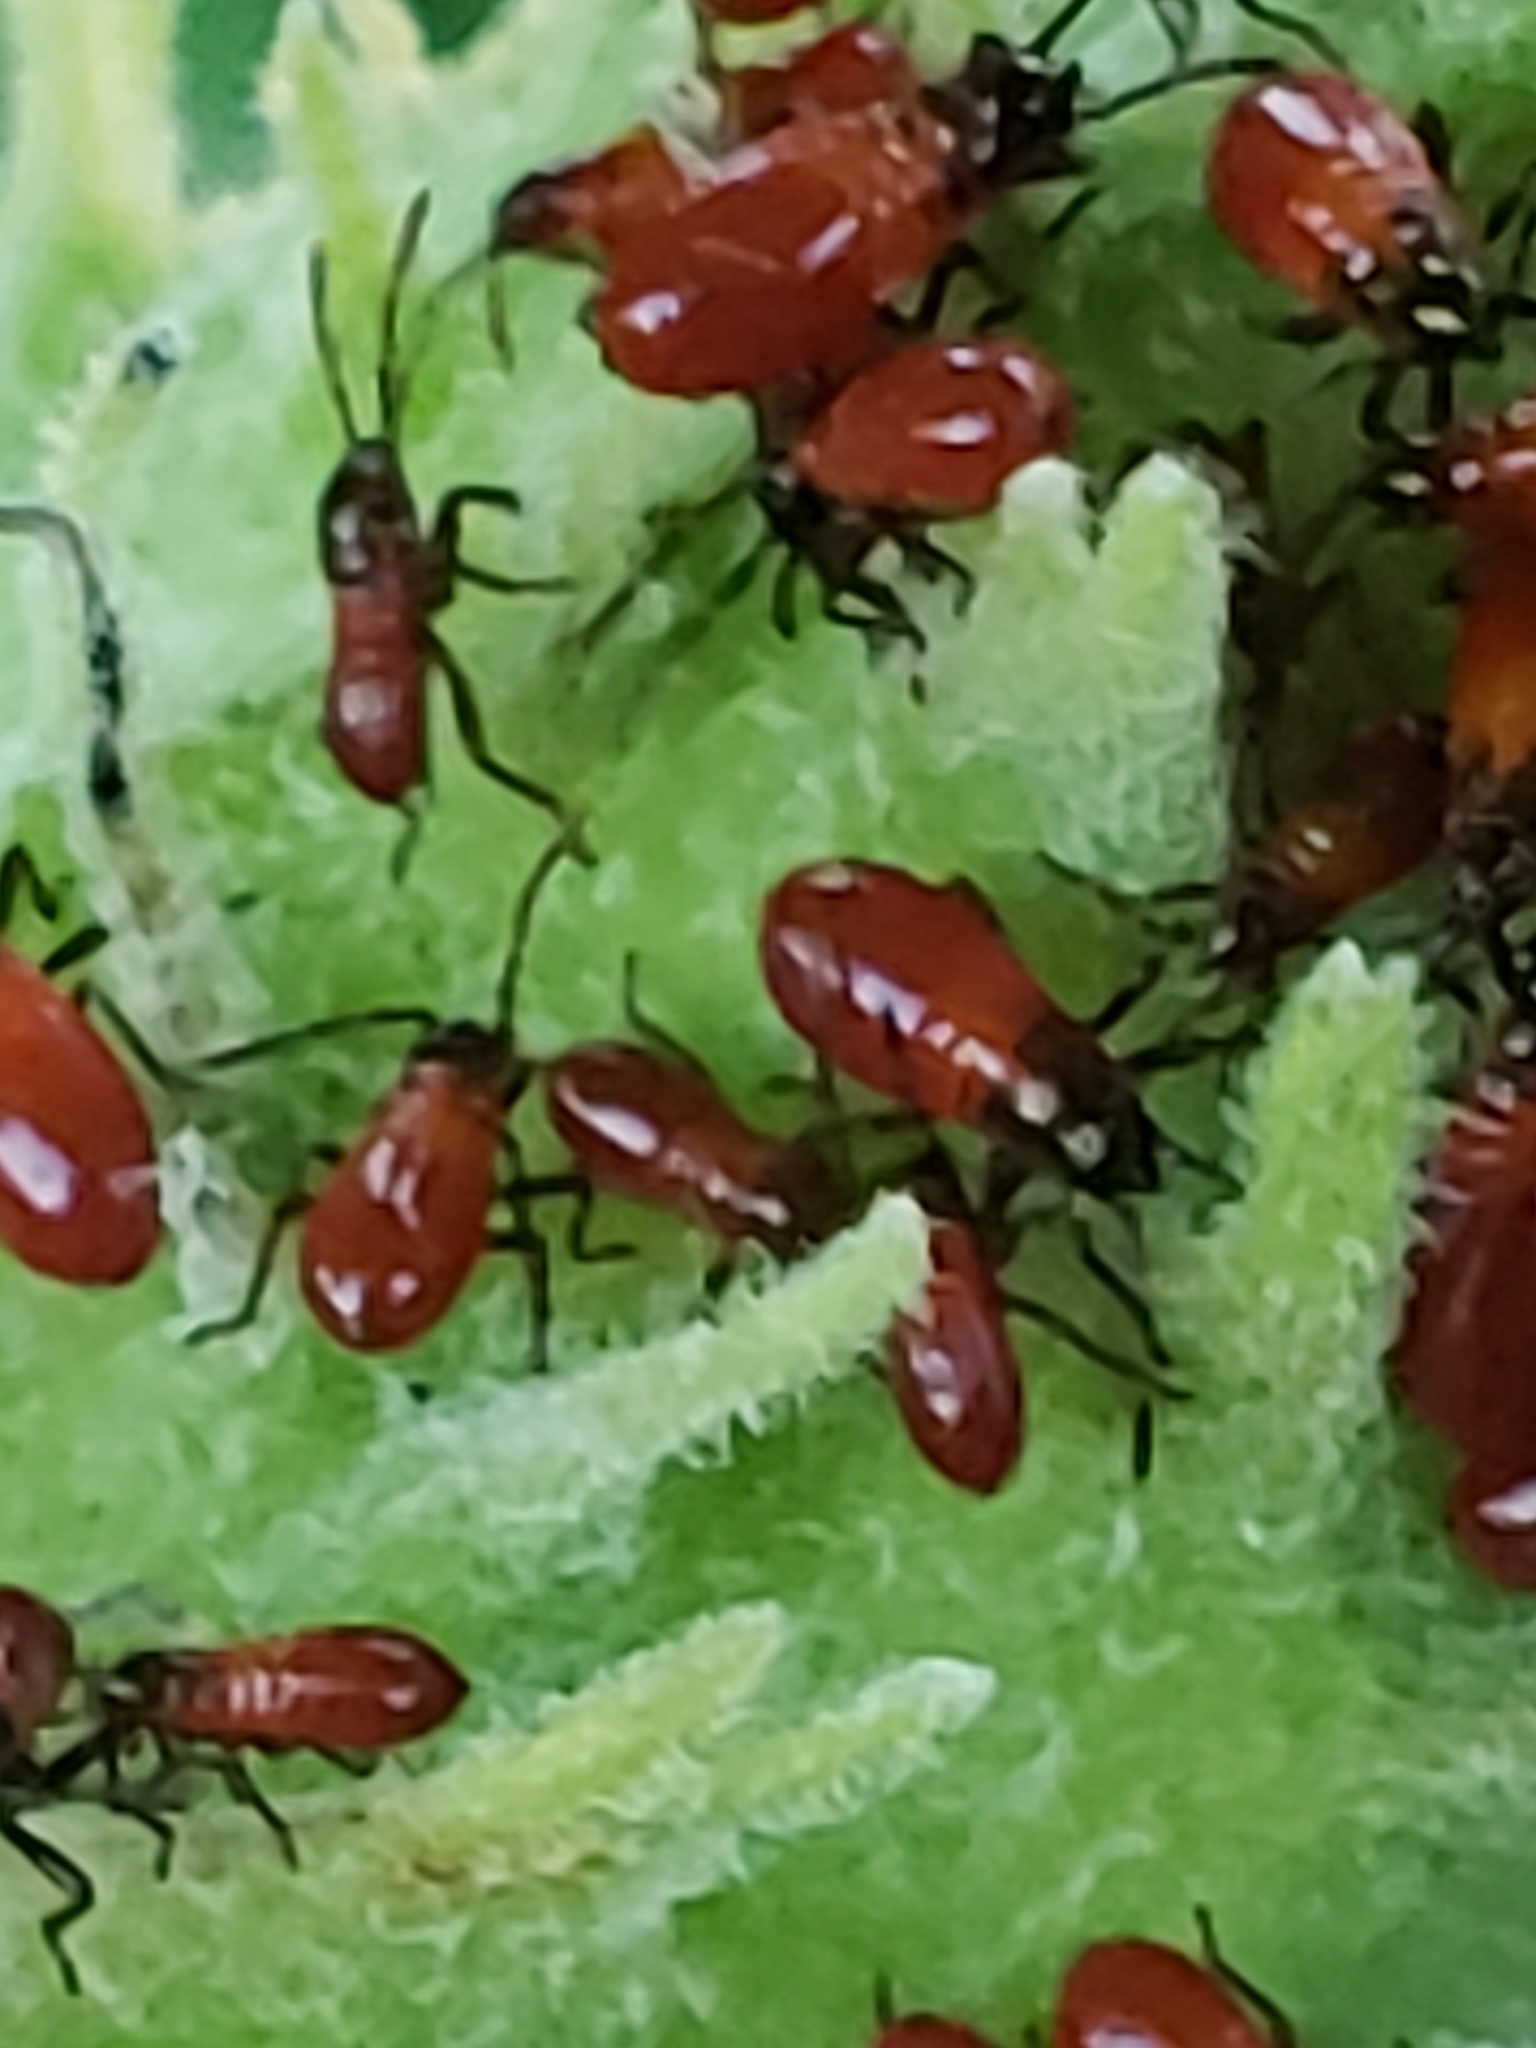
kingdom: Animalia
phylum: Arthropoda
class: Insecta
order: Hemiptera
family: Lygaeidae
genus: Oncopeltus
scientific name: Oncopeltus fasciatus
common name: Large milkweed bug
